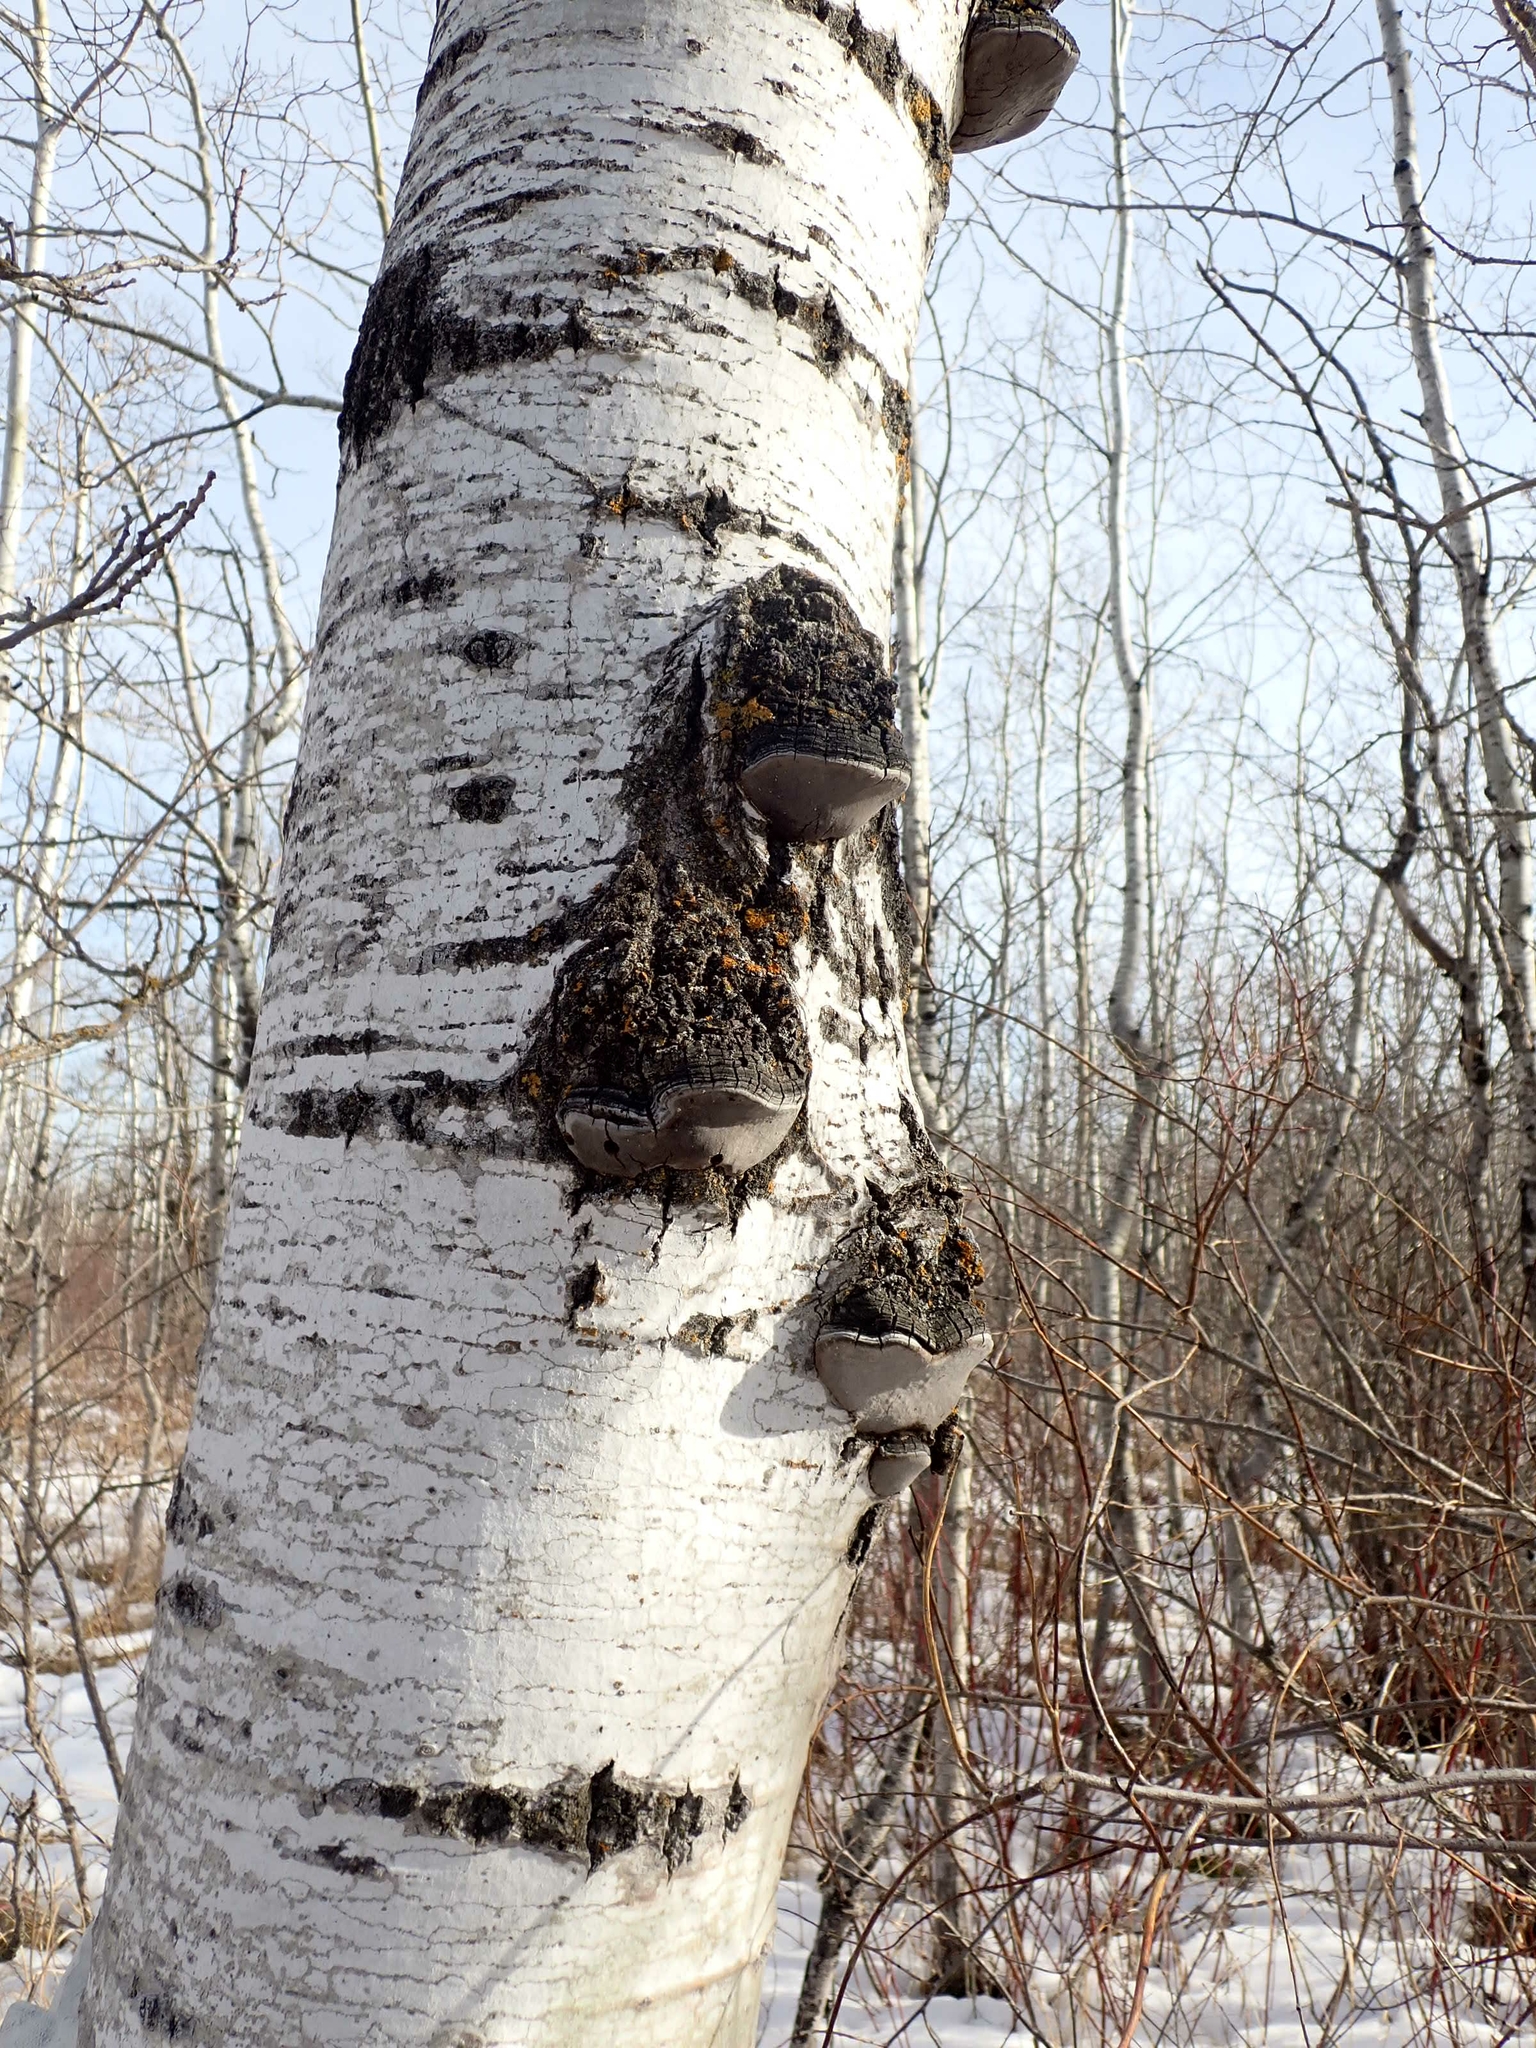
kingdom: Plantae
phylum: Tracheophyta
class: Magnoliopsida
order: Malpighiales
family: Salicaceae
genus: Populus
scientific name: Populus tremuloides
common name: Quaking aspen
